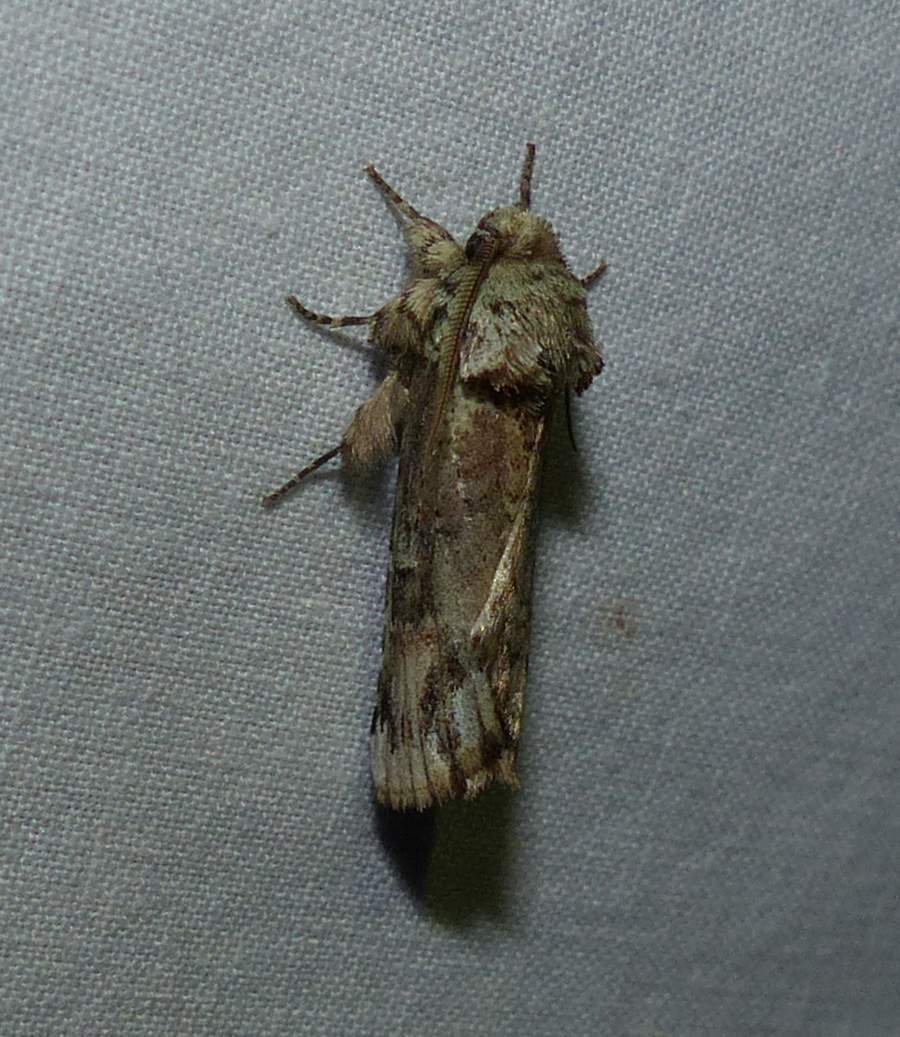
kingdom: Animalia
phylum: Arthropoda
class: Insecta
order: Lepidoptera
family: Notodontidae
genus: Schizura
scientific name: Schizura
